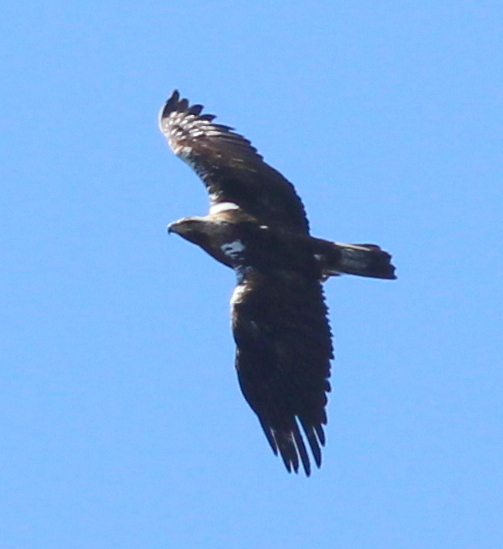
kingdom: Animalia
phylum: Chordata
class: Aves
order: Accipitriformes
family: Accipitridae
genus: Aquila
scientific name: Aquila adalberti
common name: Spanish imperial eagle
